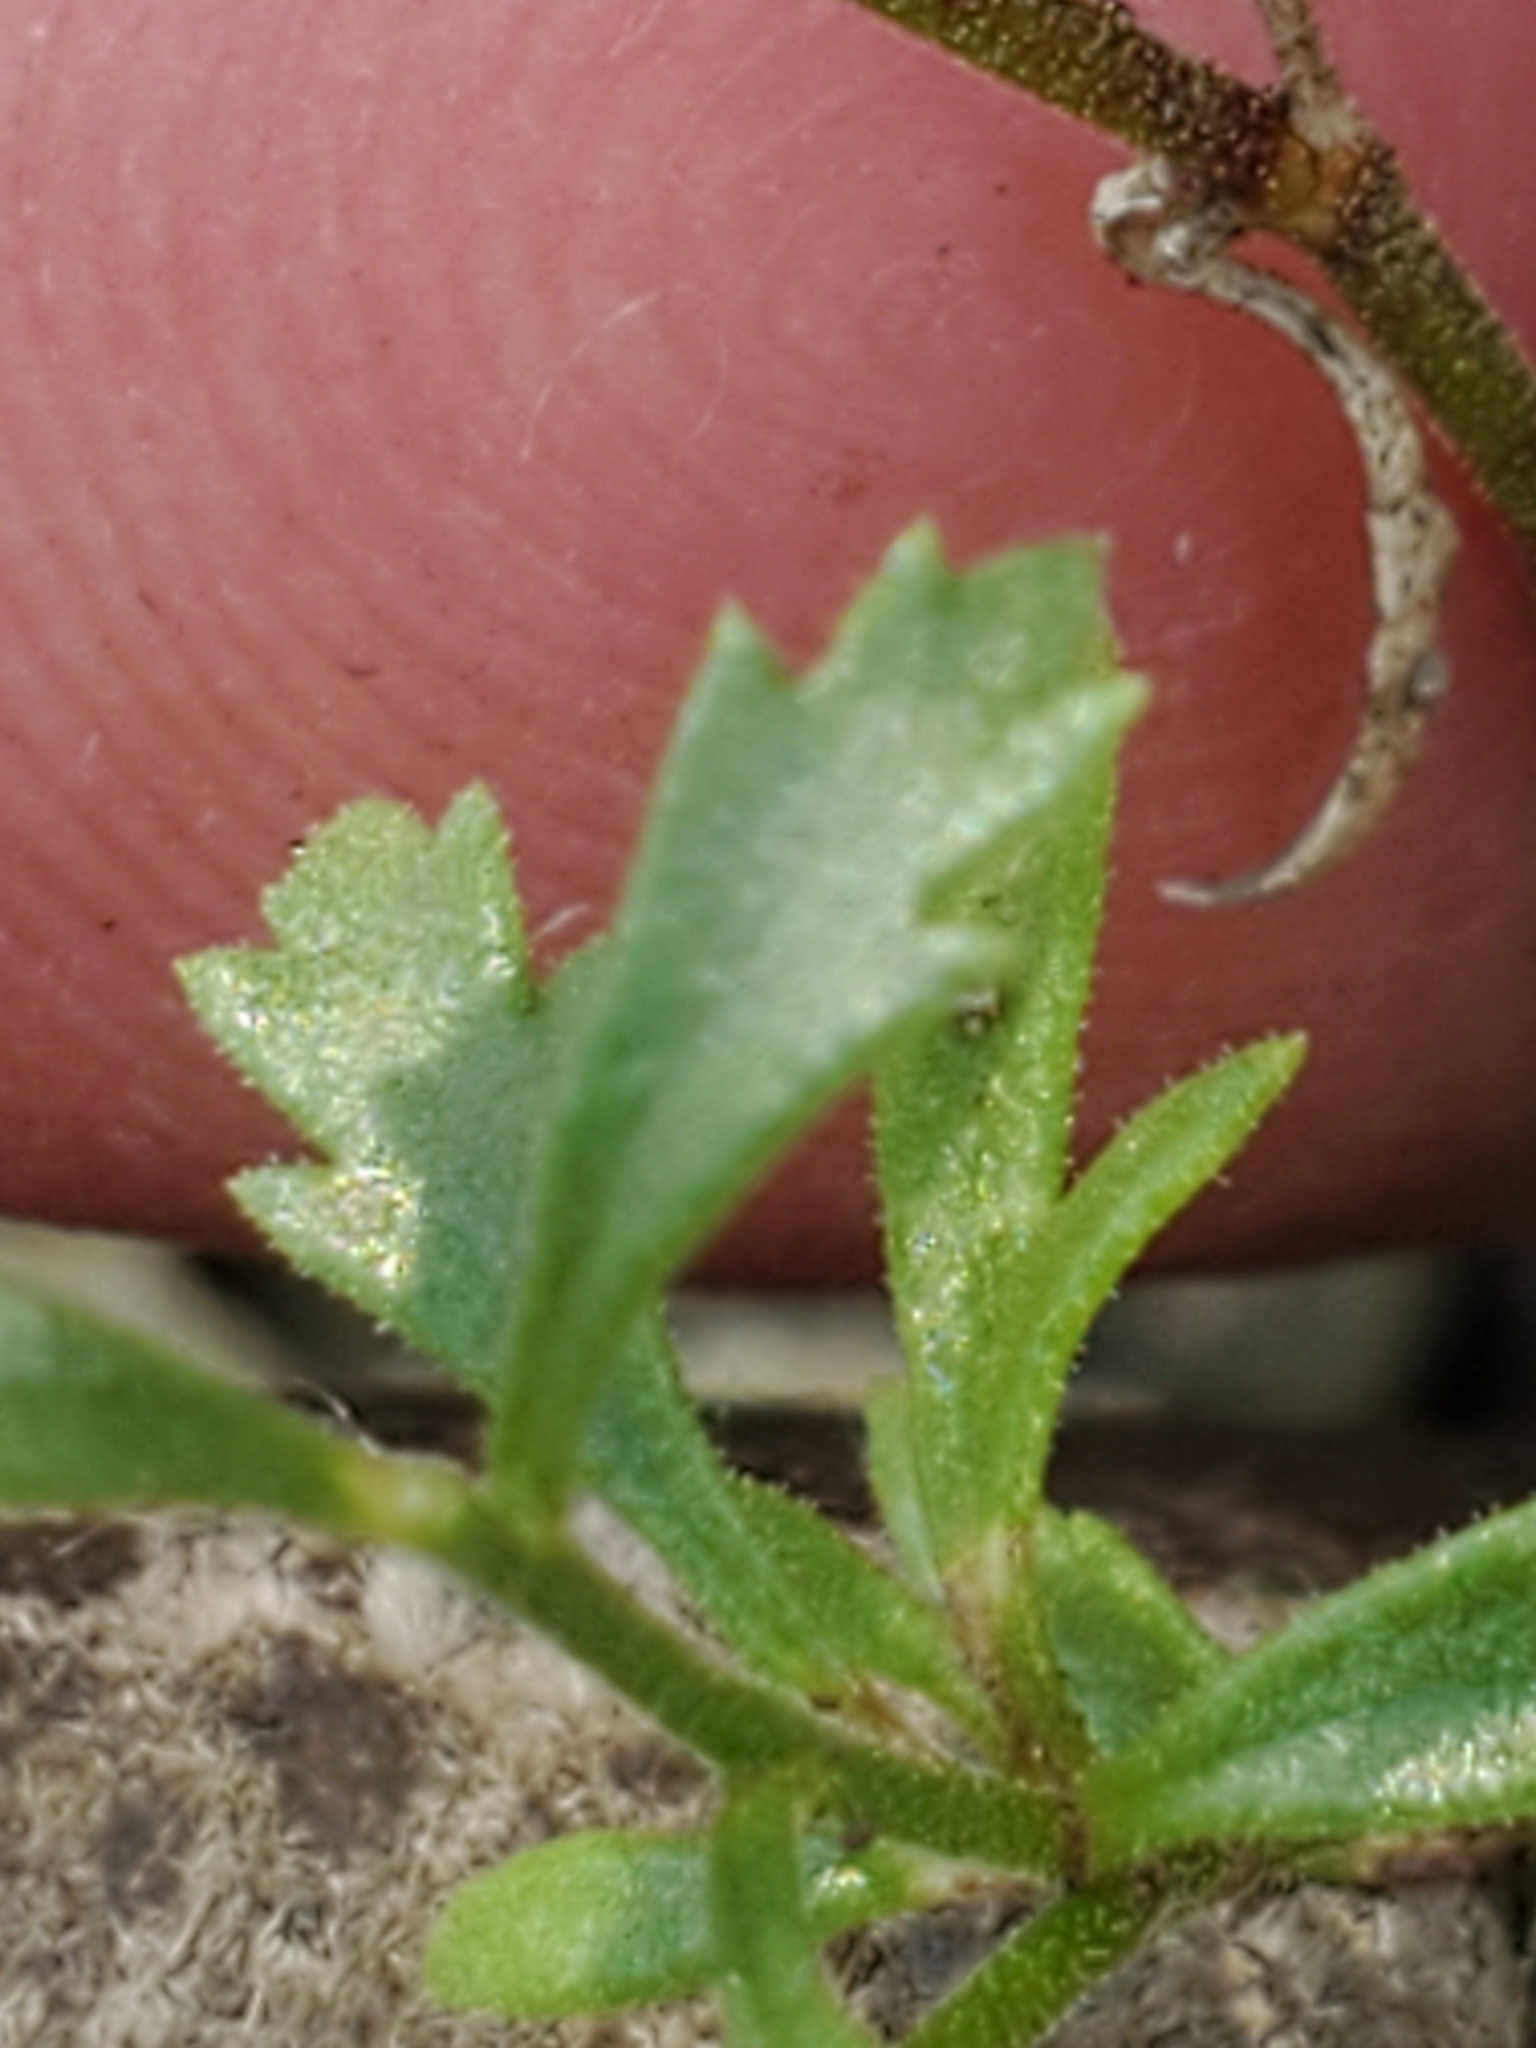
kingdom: Plantae
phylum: Tracheophyta
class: Magnoliopsida
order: Ericales
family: Polemoniaceae
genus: Giliastrum
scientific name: Giliastrum incisum
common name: Splitleaf gilia
